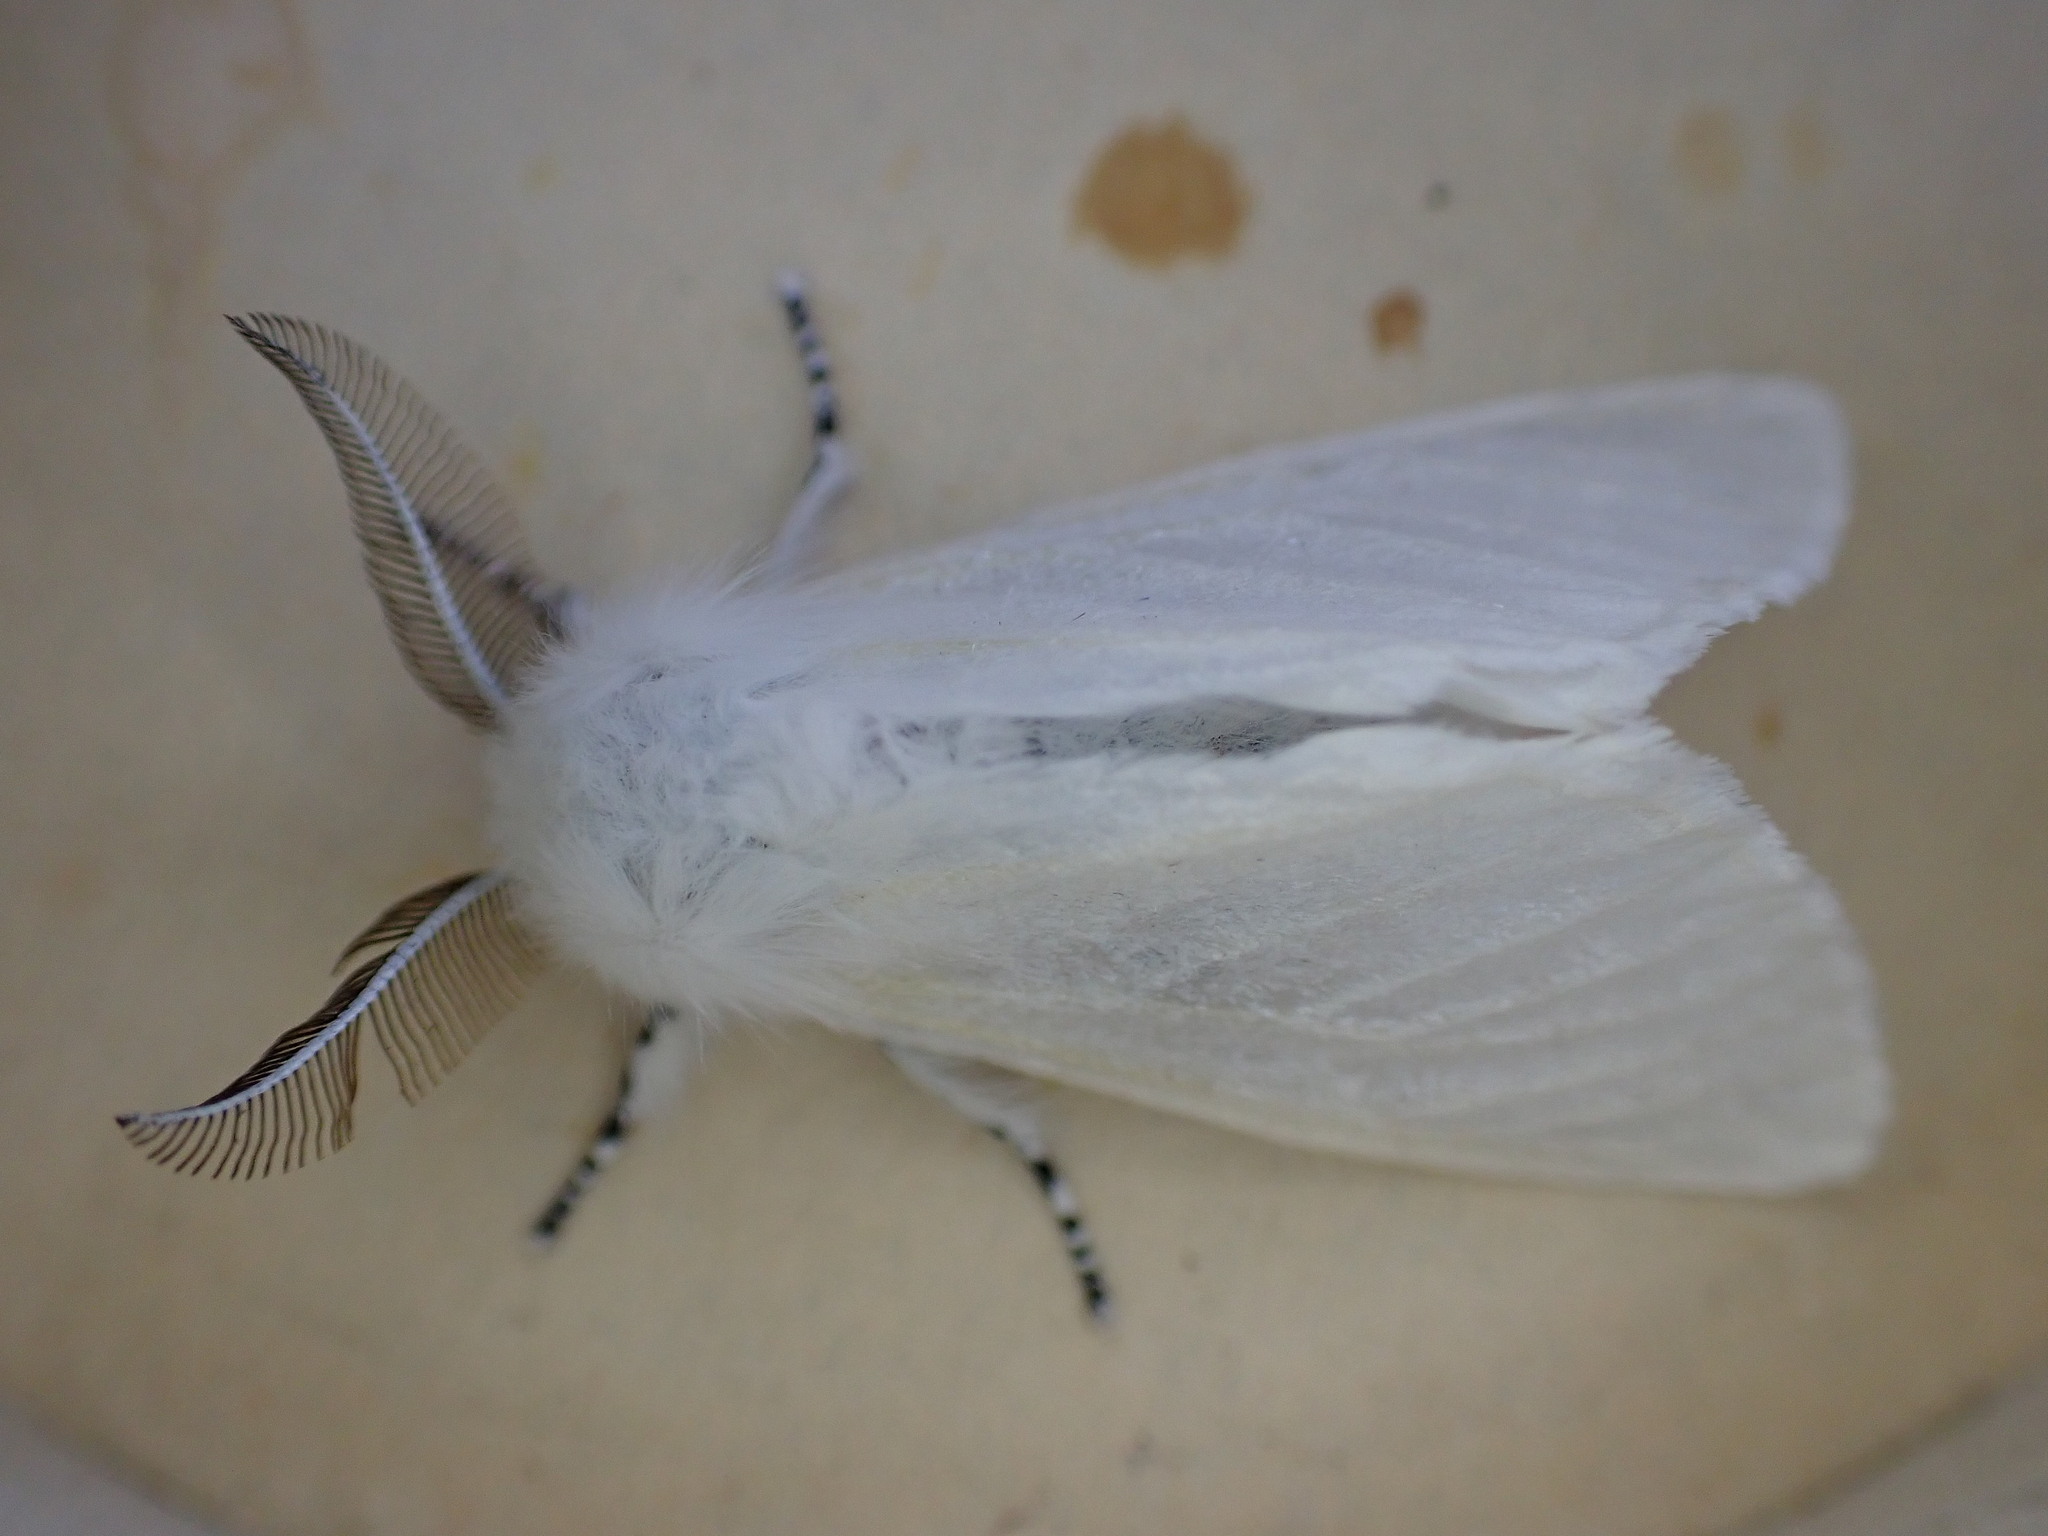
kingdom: Animalia
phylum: Arthropoda
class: Insecta
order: Lepidoptera
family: Erebidae
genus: Leucoma
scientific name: Leucoma salicis
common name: White satin moth
